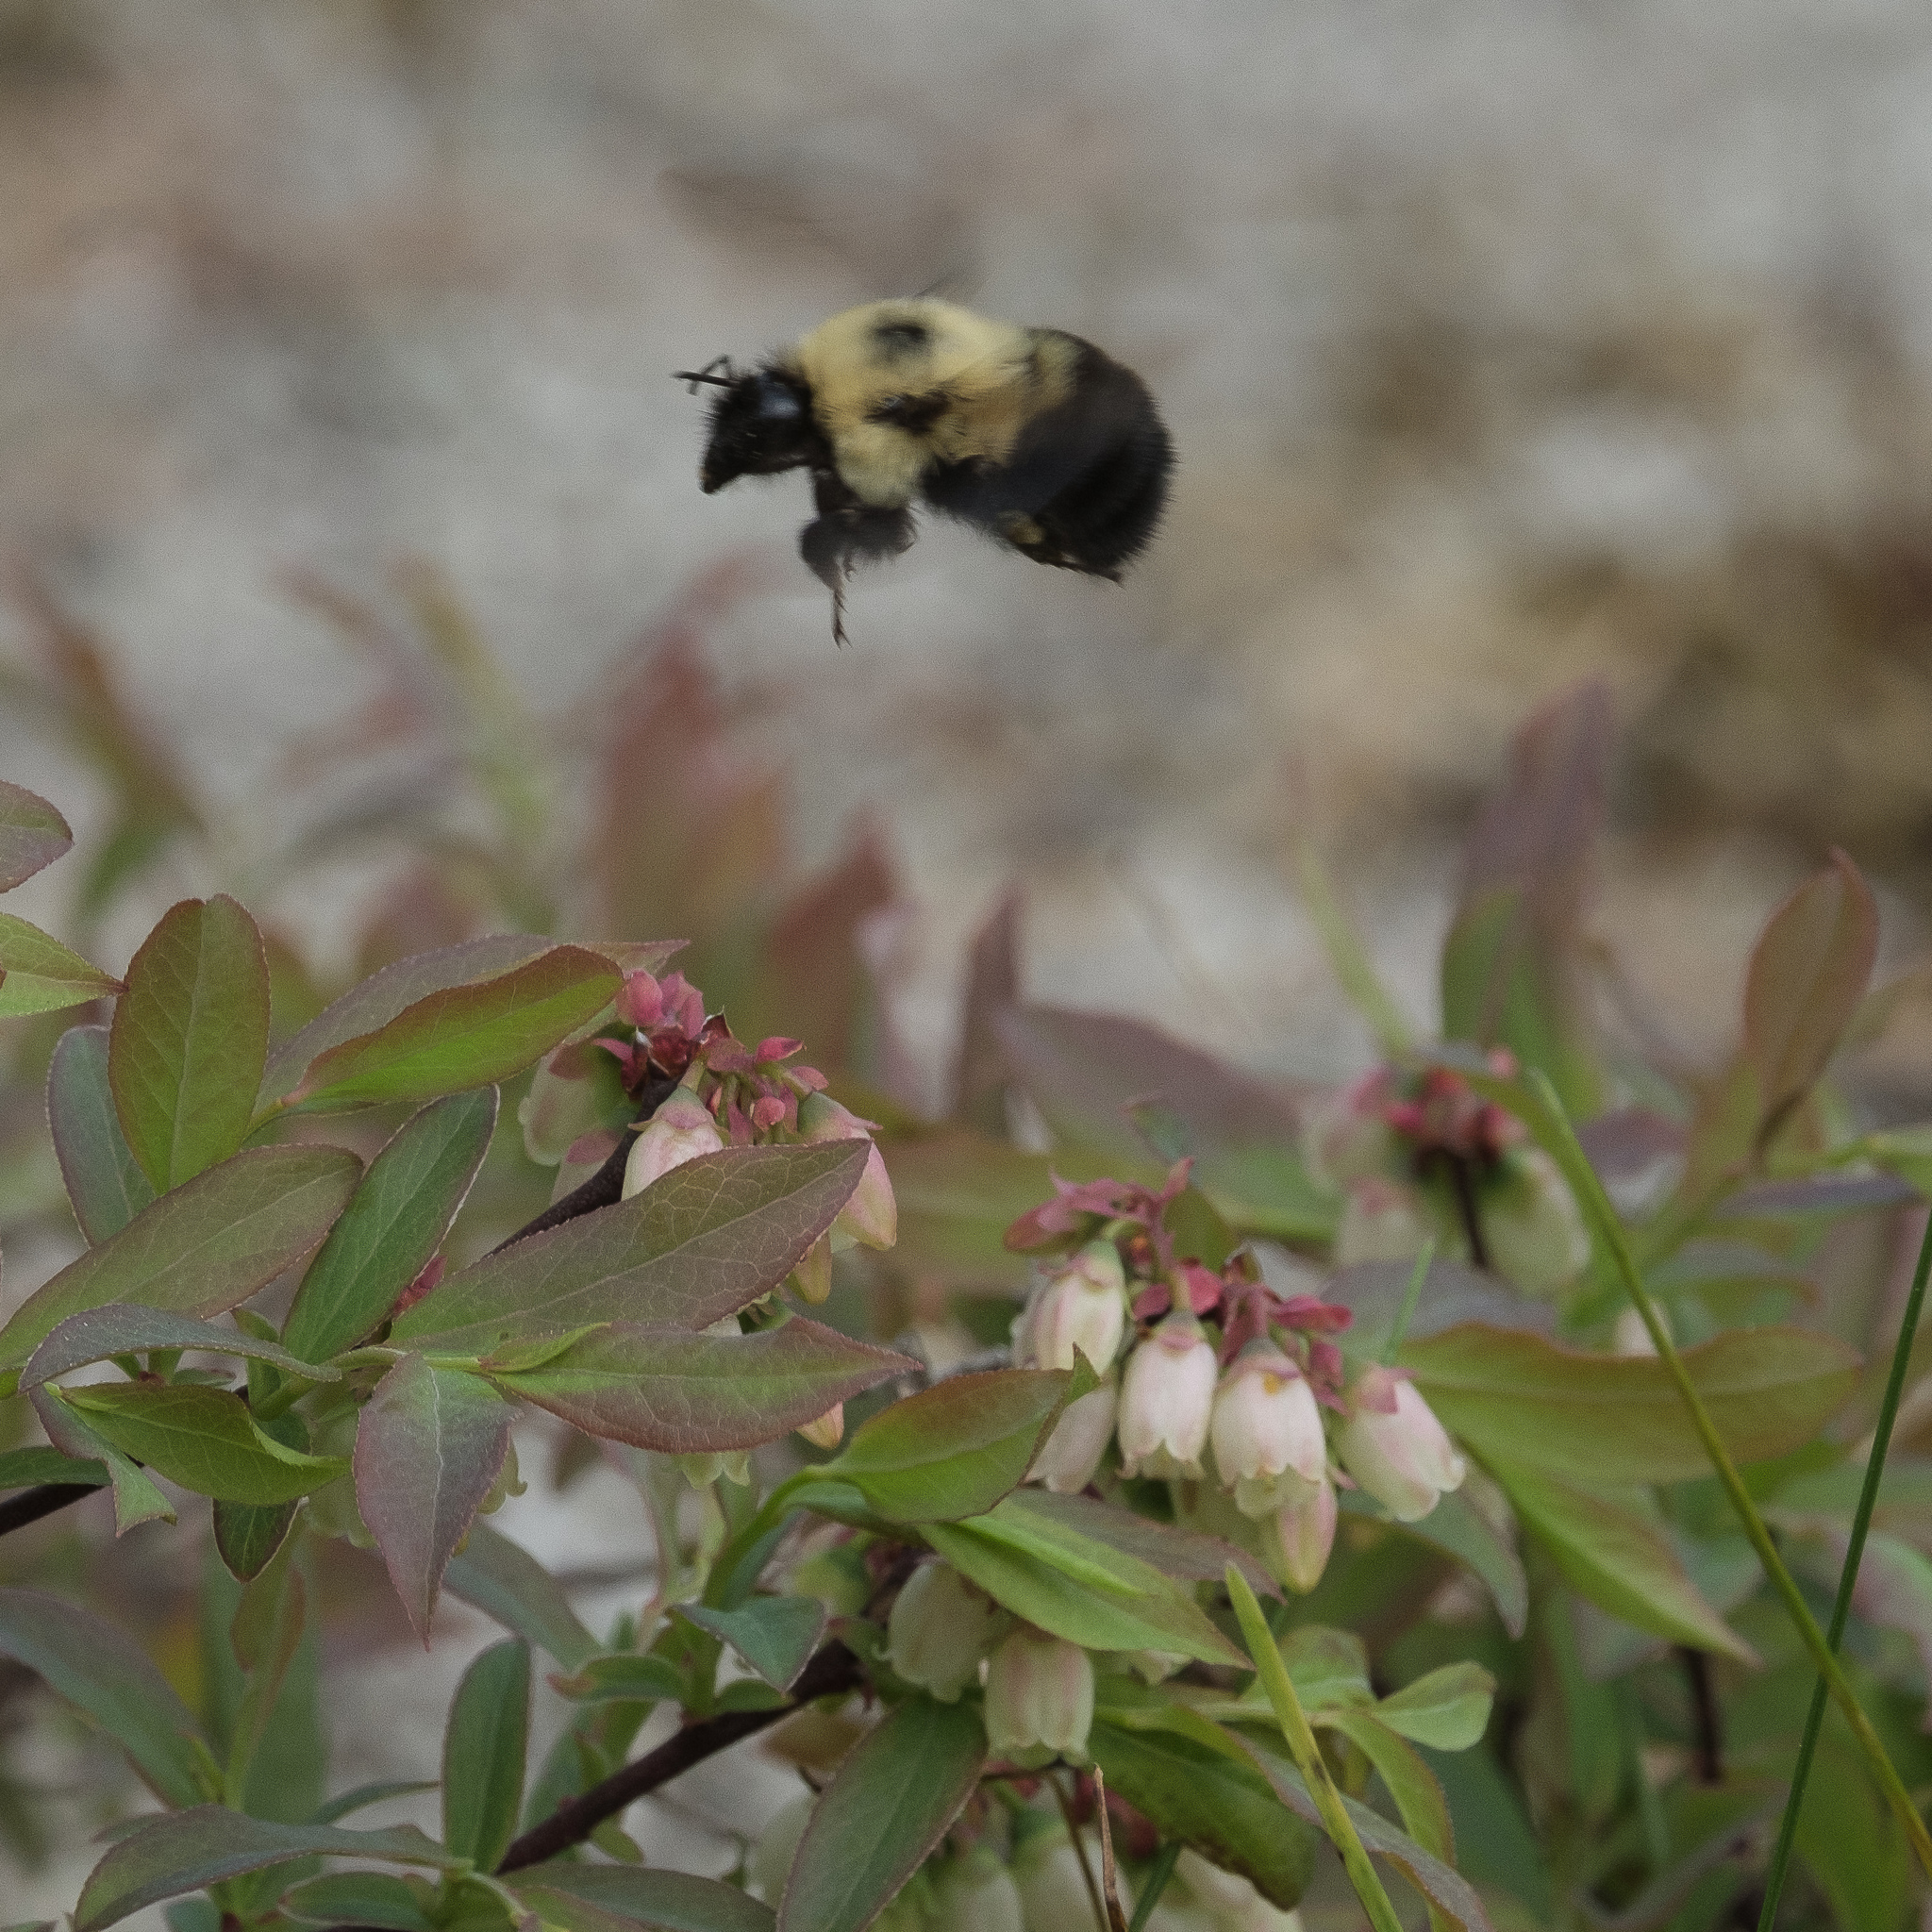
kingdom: Animalia
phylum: Arthropoda
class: Insecta
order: Hymenoptera
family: Apidae
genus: Bombus
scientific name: Bombus bimaculatus
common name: Two-spotted bumble bee
